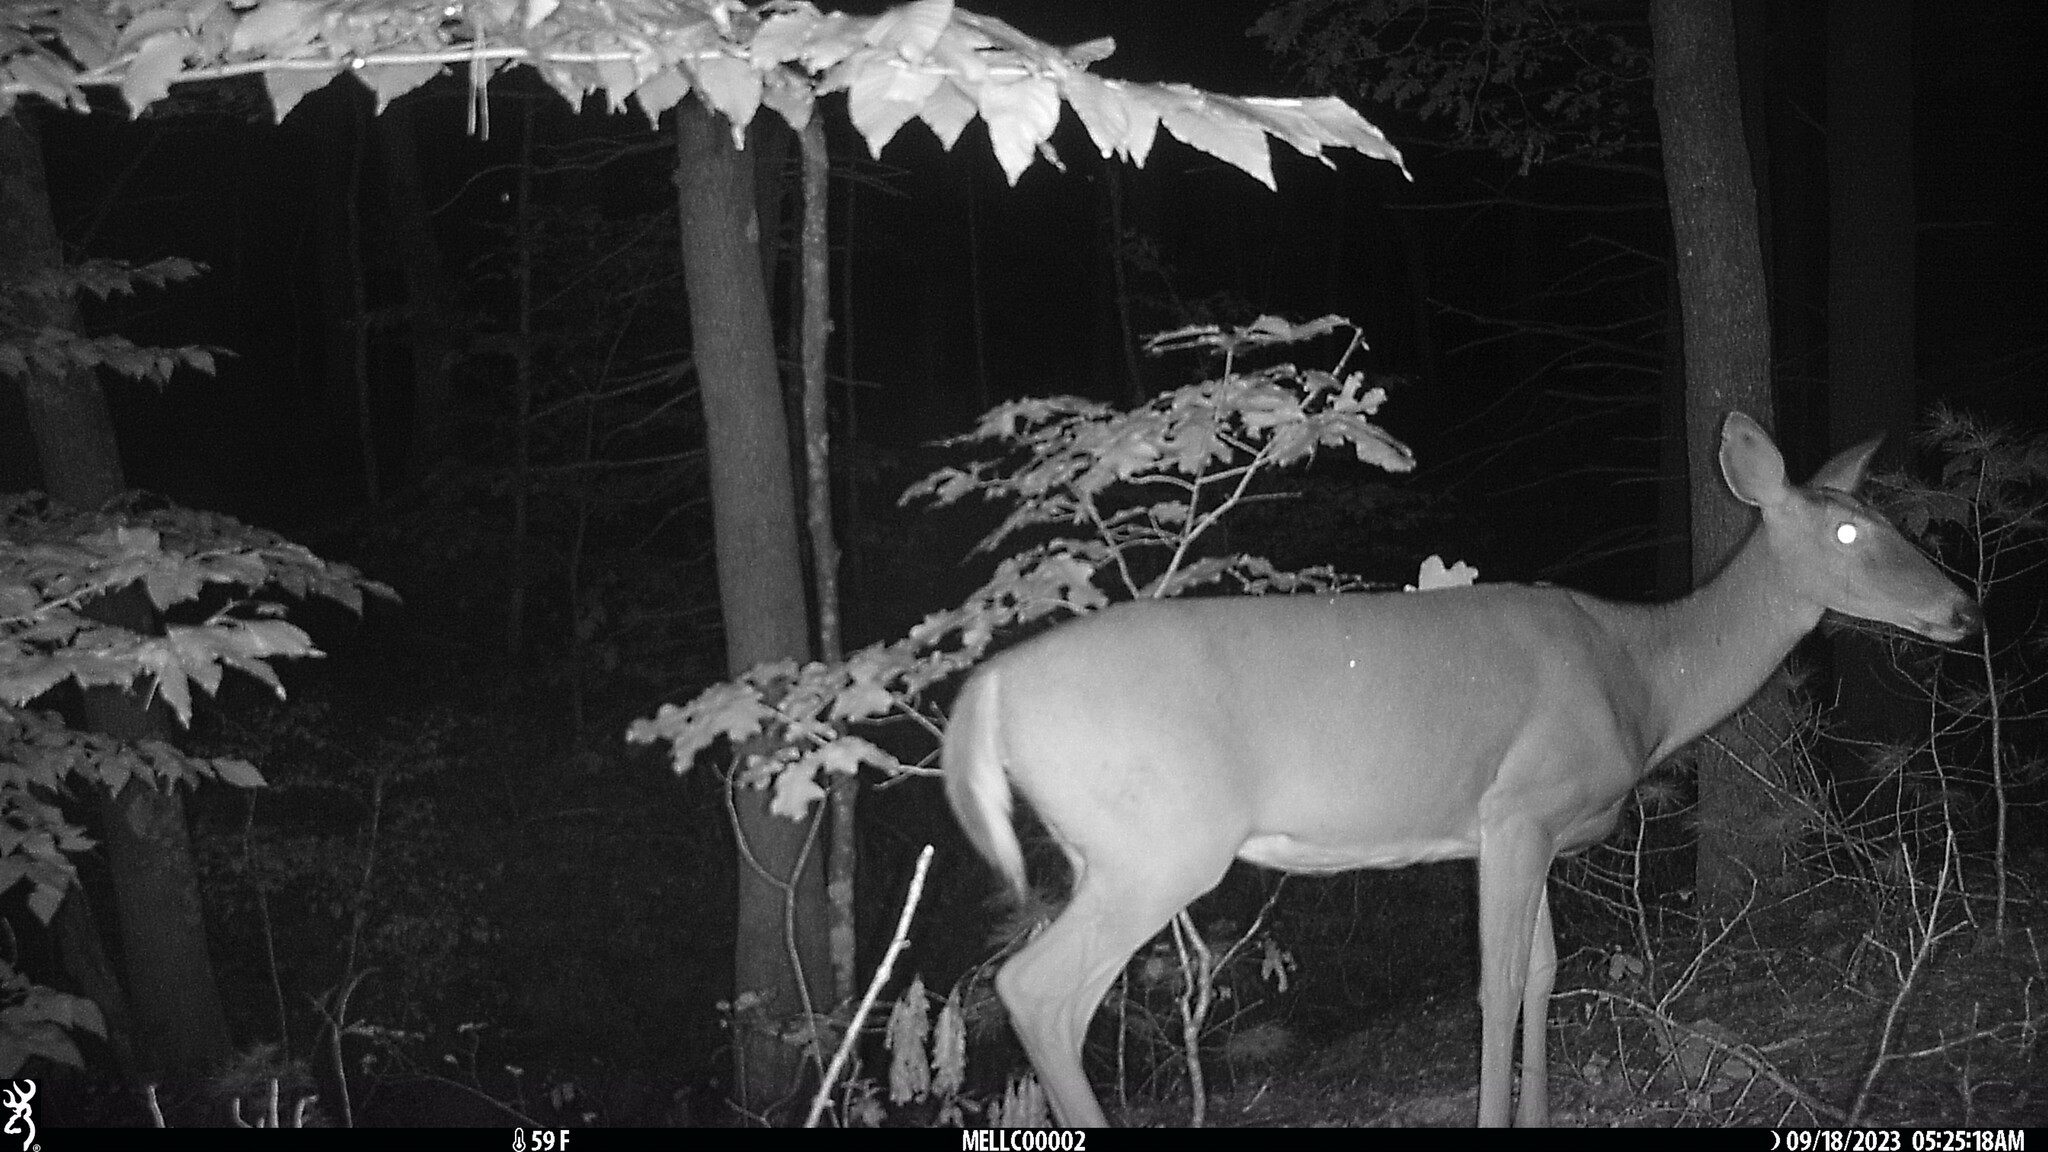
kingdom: Animalia
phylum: Chordata
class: Mammalia
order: Artiodactyla
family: Cervidae
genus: Odocoileus
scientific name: Odocoileus virginianus
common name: White-tailed deer
